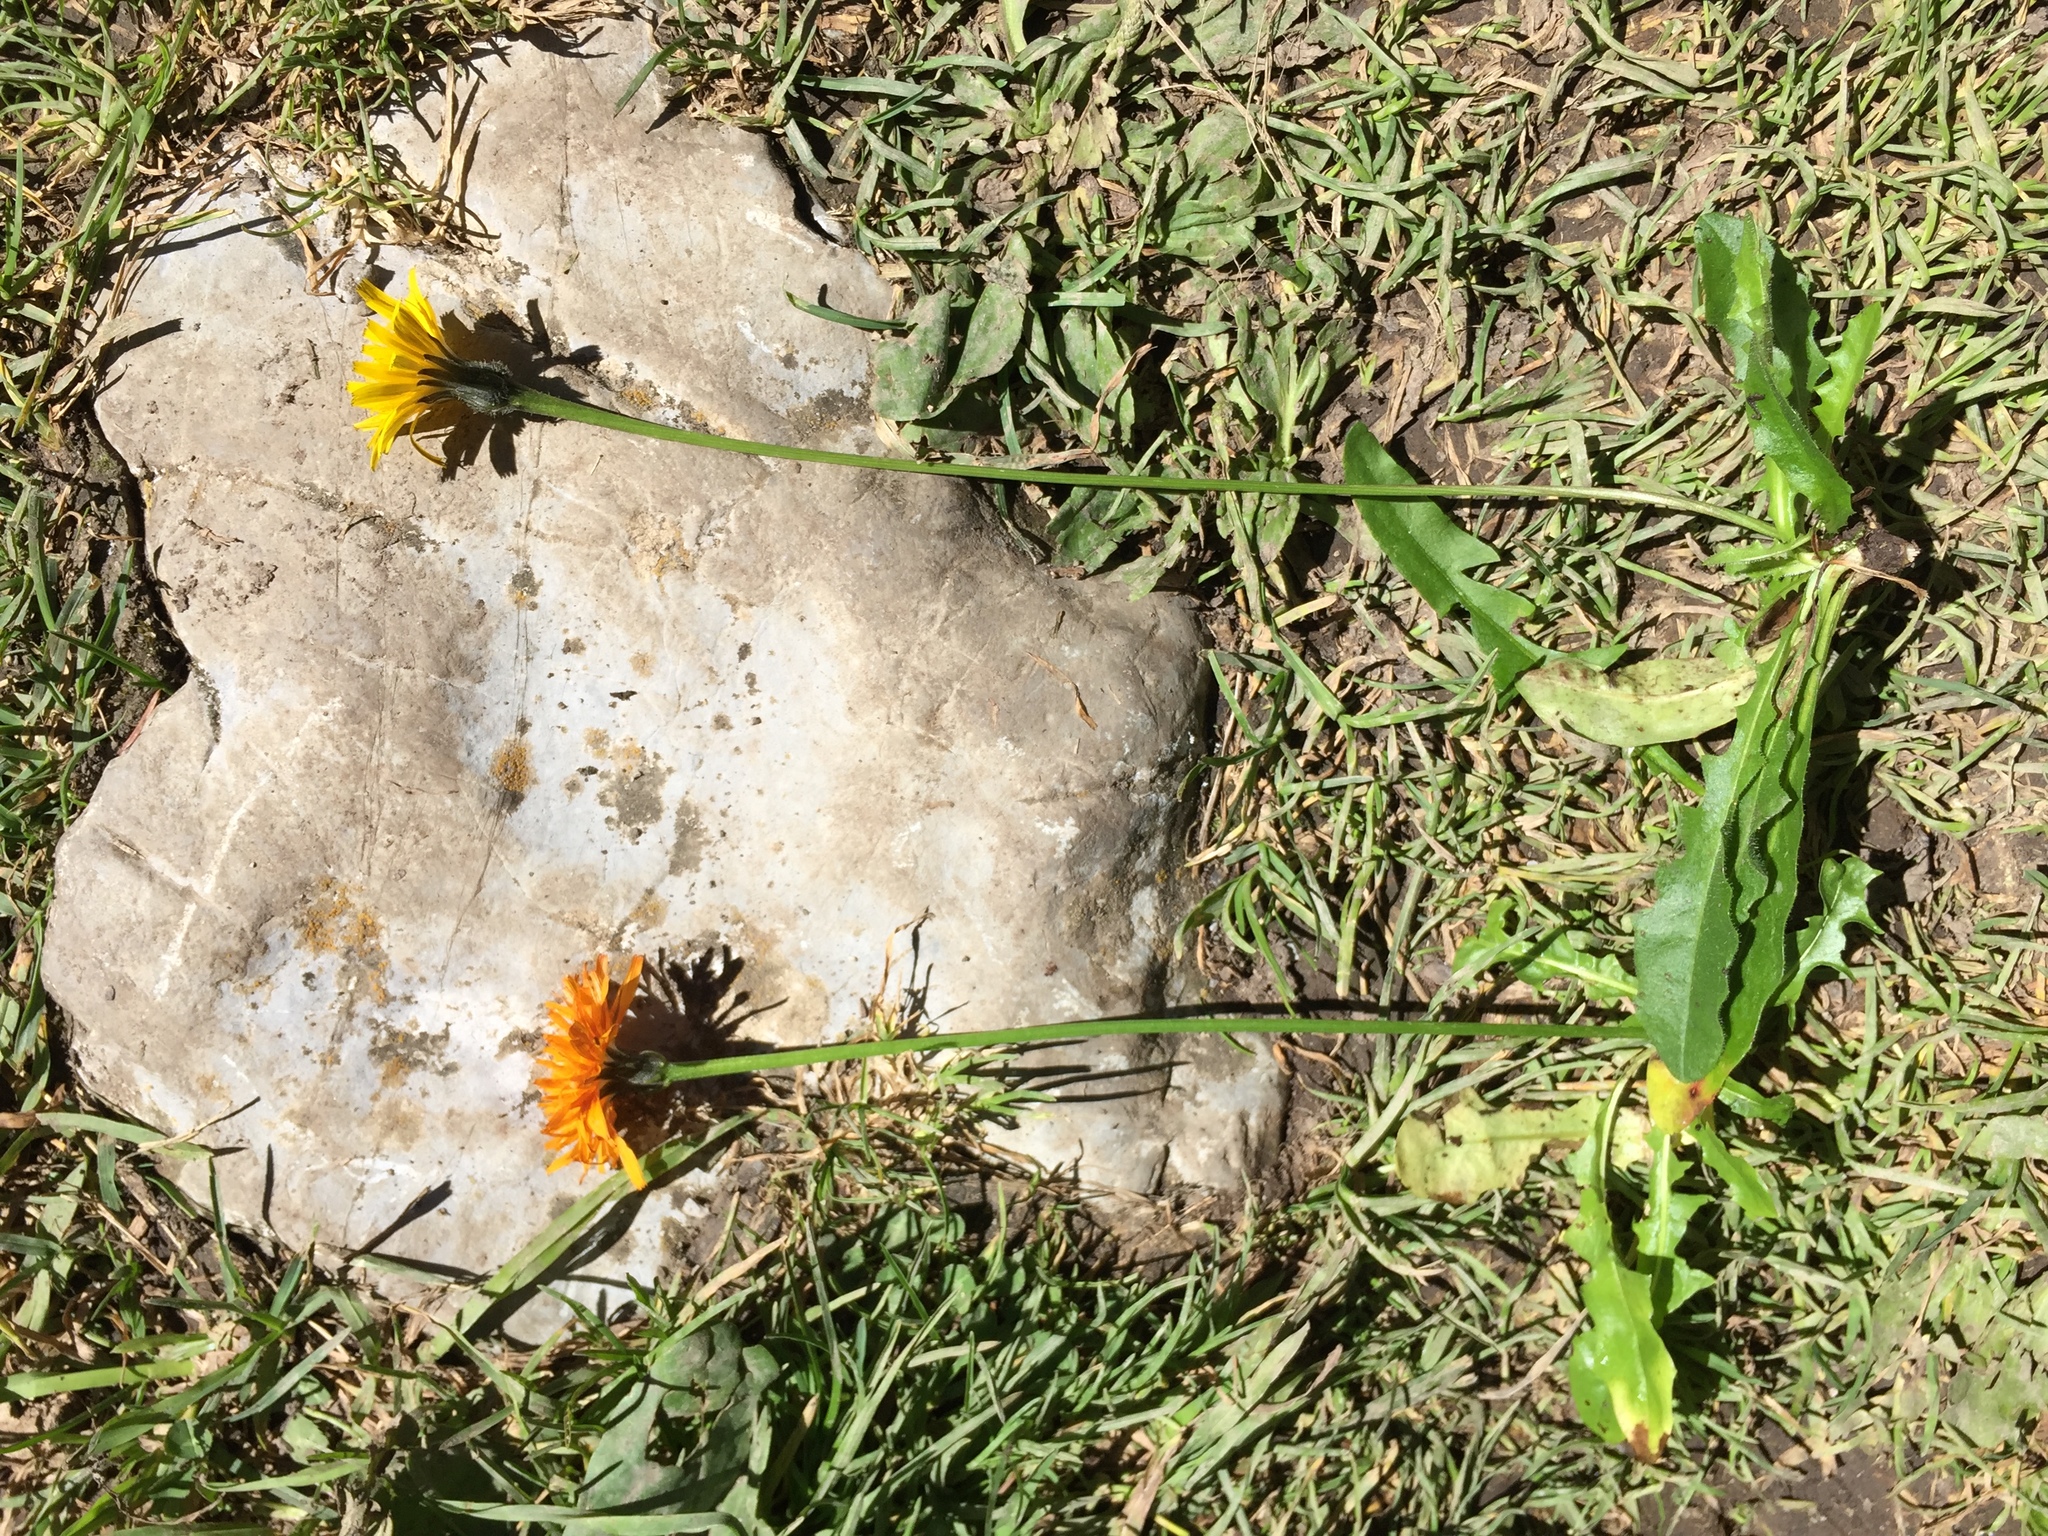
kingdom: Plantae
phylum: Tracheophyta
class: Magnoliopsida
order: Asterales
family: Asteraceae
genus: Leontodon
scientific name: Leontodon hispidus
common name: Rough hawkbit
